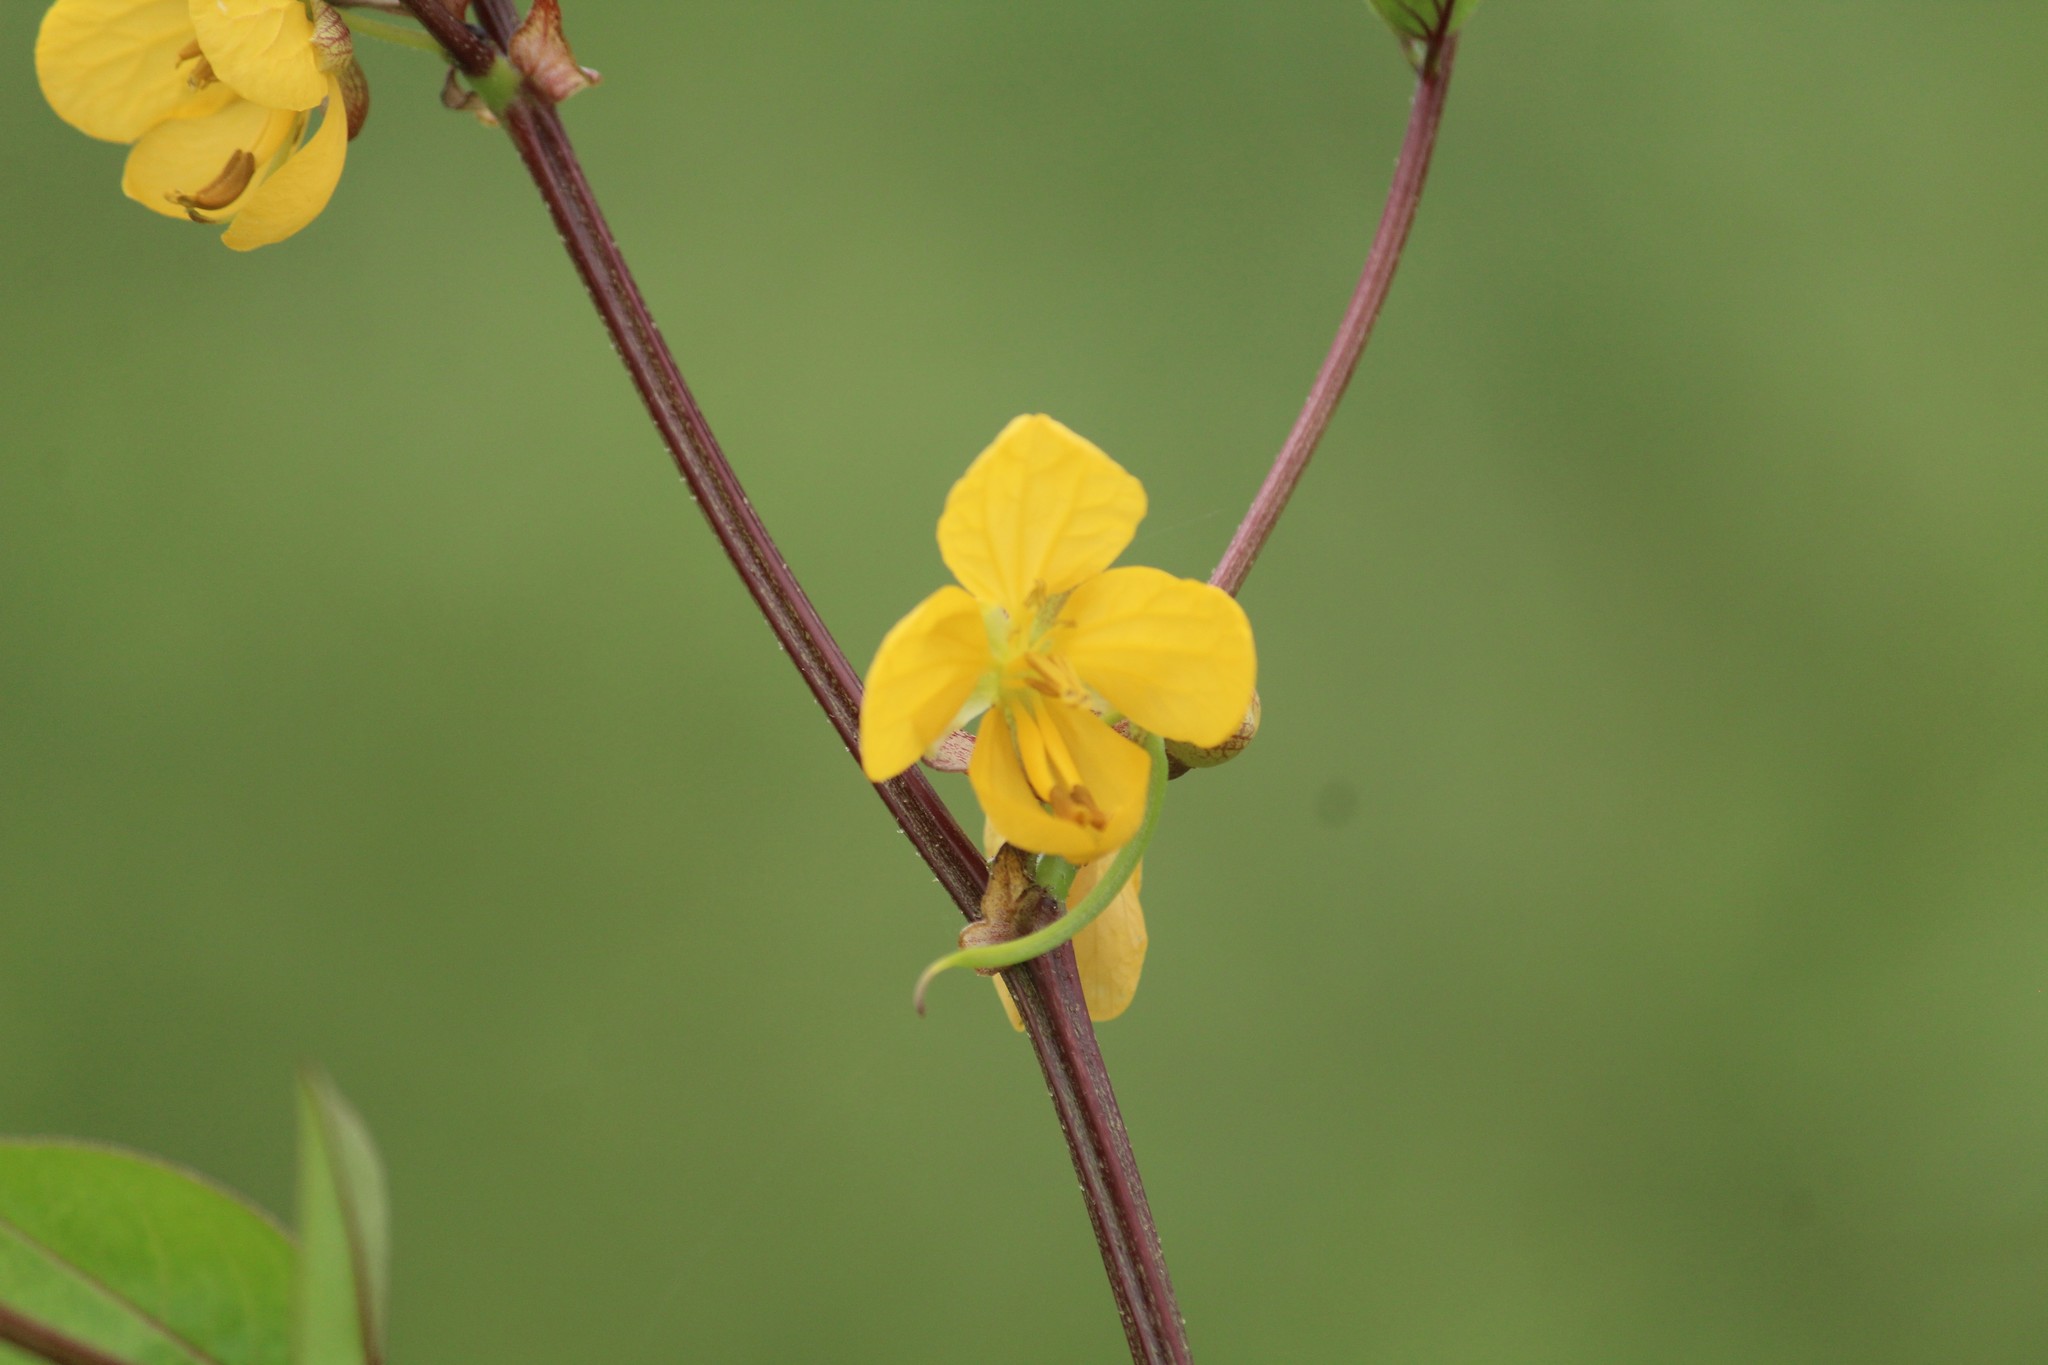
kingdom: Plantae
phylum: Tracheophyta
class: Magnoliopsida
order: Fabales
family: Fabaceae
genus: Senna
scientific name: Senna occidentalis
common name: Septicweed
